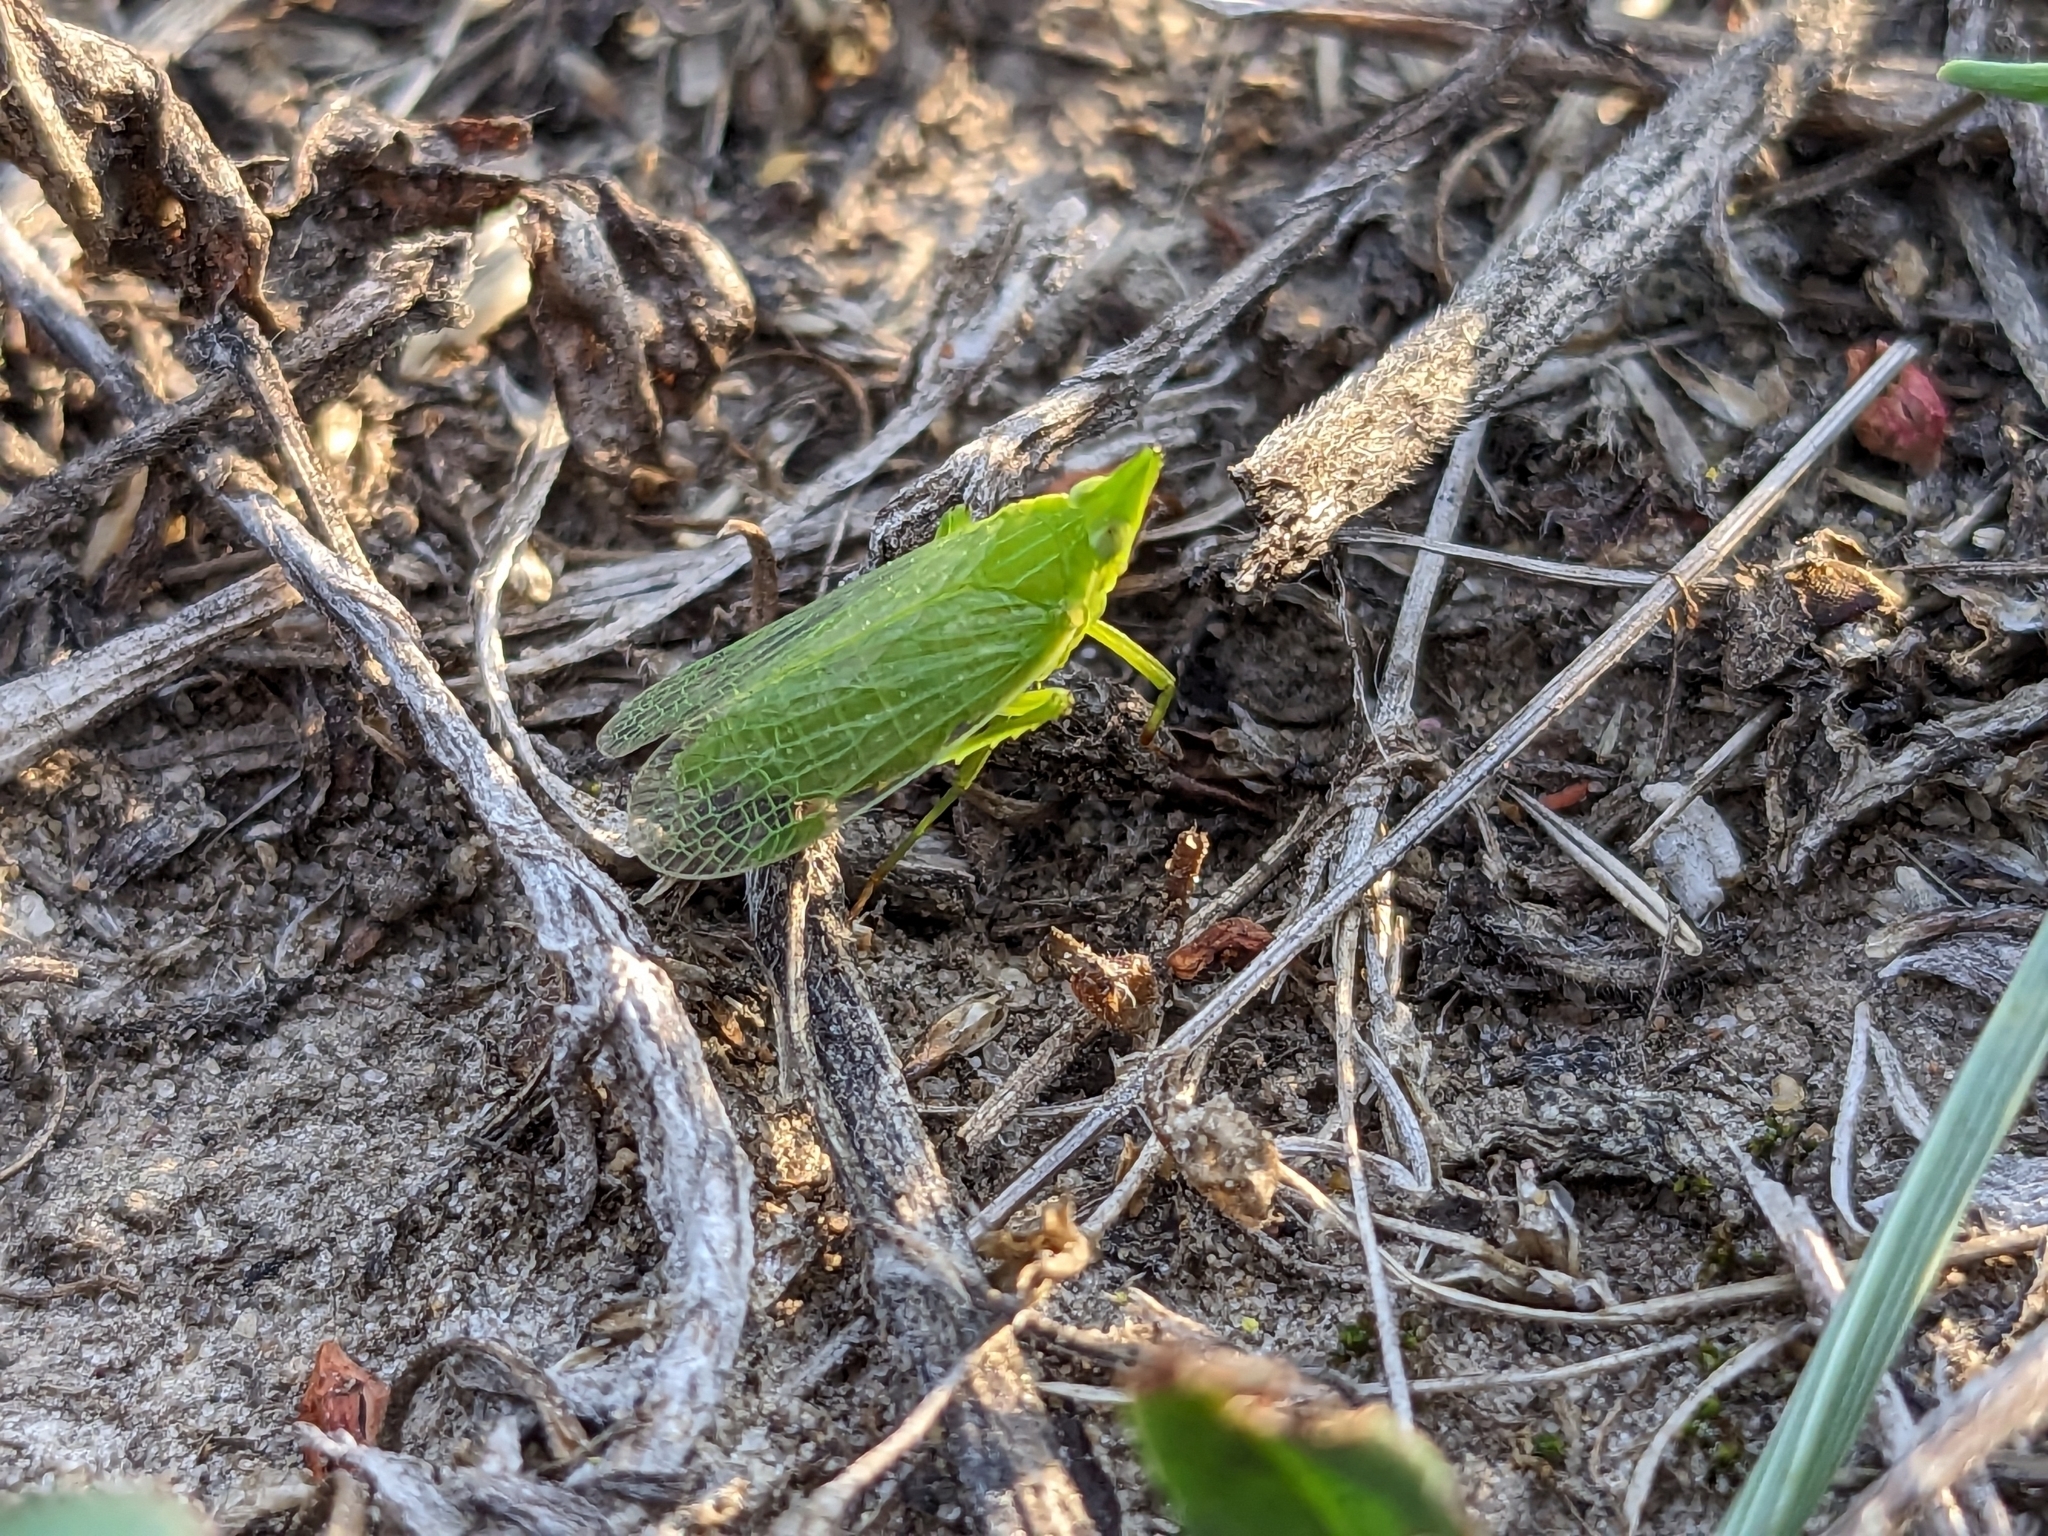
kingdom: Animalia
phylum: Arthropoda
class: Insecta
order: Hemiptera
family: Dictyopharidae
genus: Dictyophara
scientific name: Dictyophara europaea
